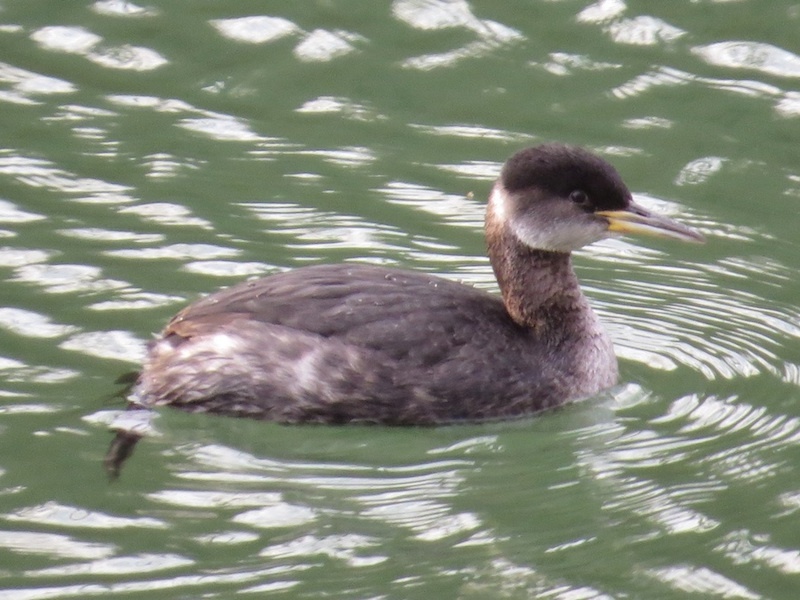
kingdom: Animalia
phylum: Chordata
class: Aves
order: Podicipediformes
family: Podicipedidae
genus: Podiceps
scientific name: Podiceps grisegena
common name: Red-necked grebe
